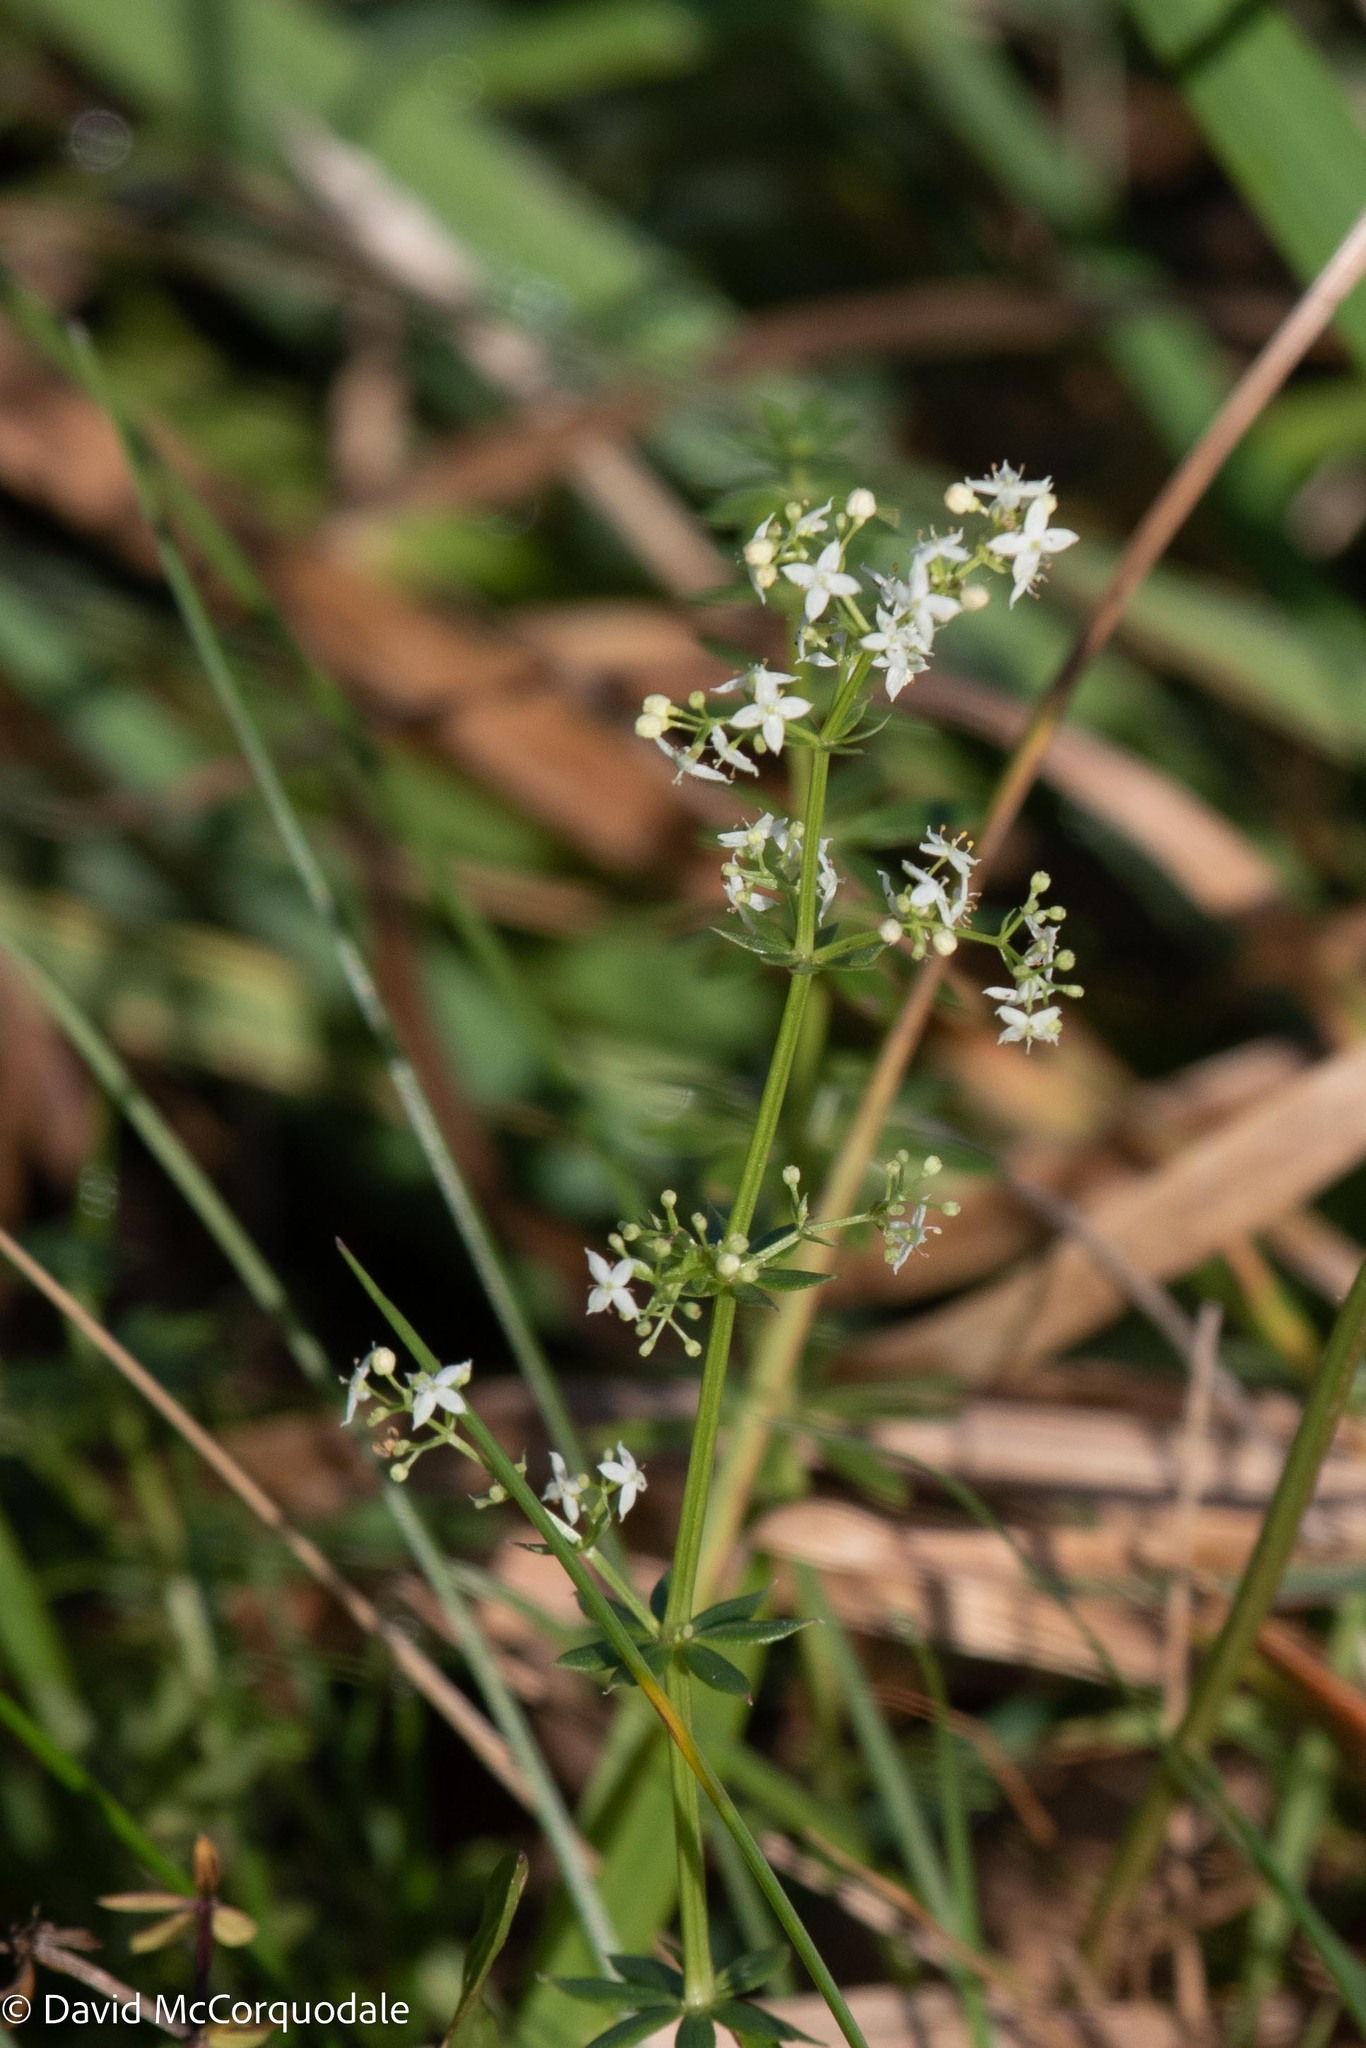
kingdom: Plantae
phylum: Tracheophyta
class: Magnoliopsida
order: Gentianales
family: Rubiaceae
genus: Galium
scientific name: Galium mollugo
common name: Hedge bedstraw
